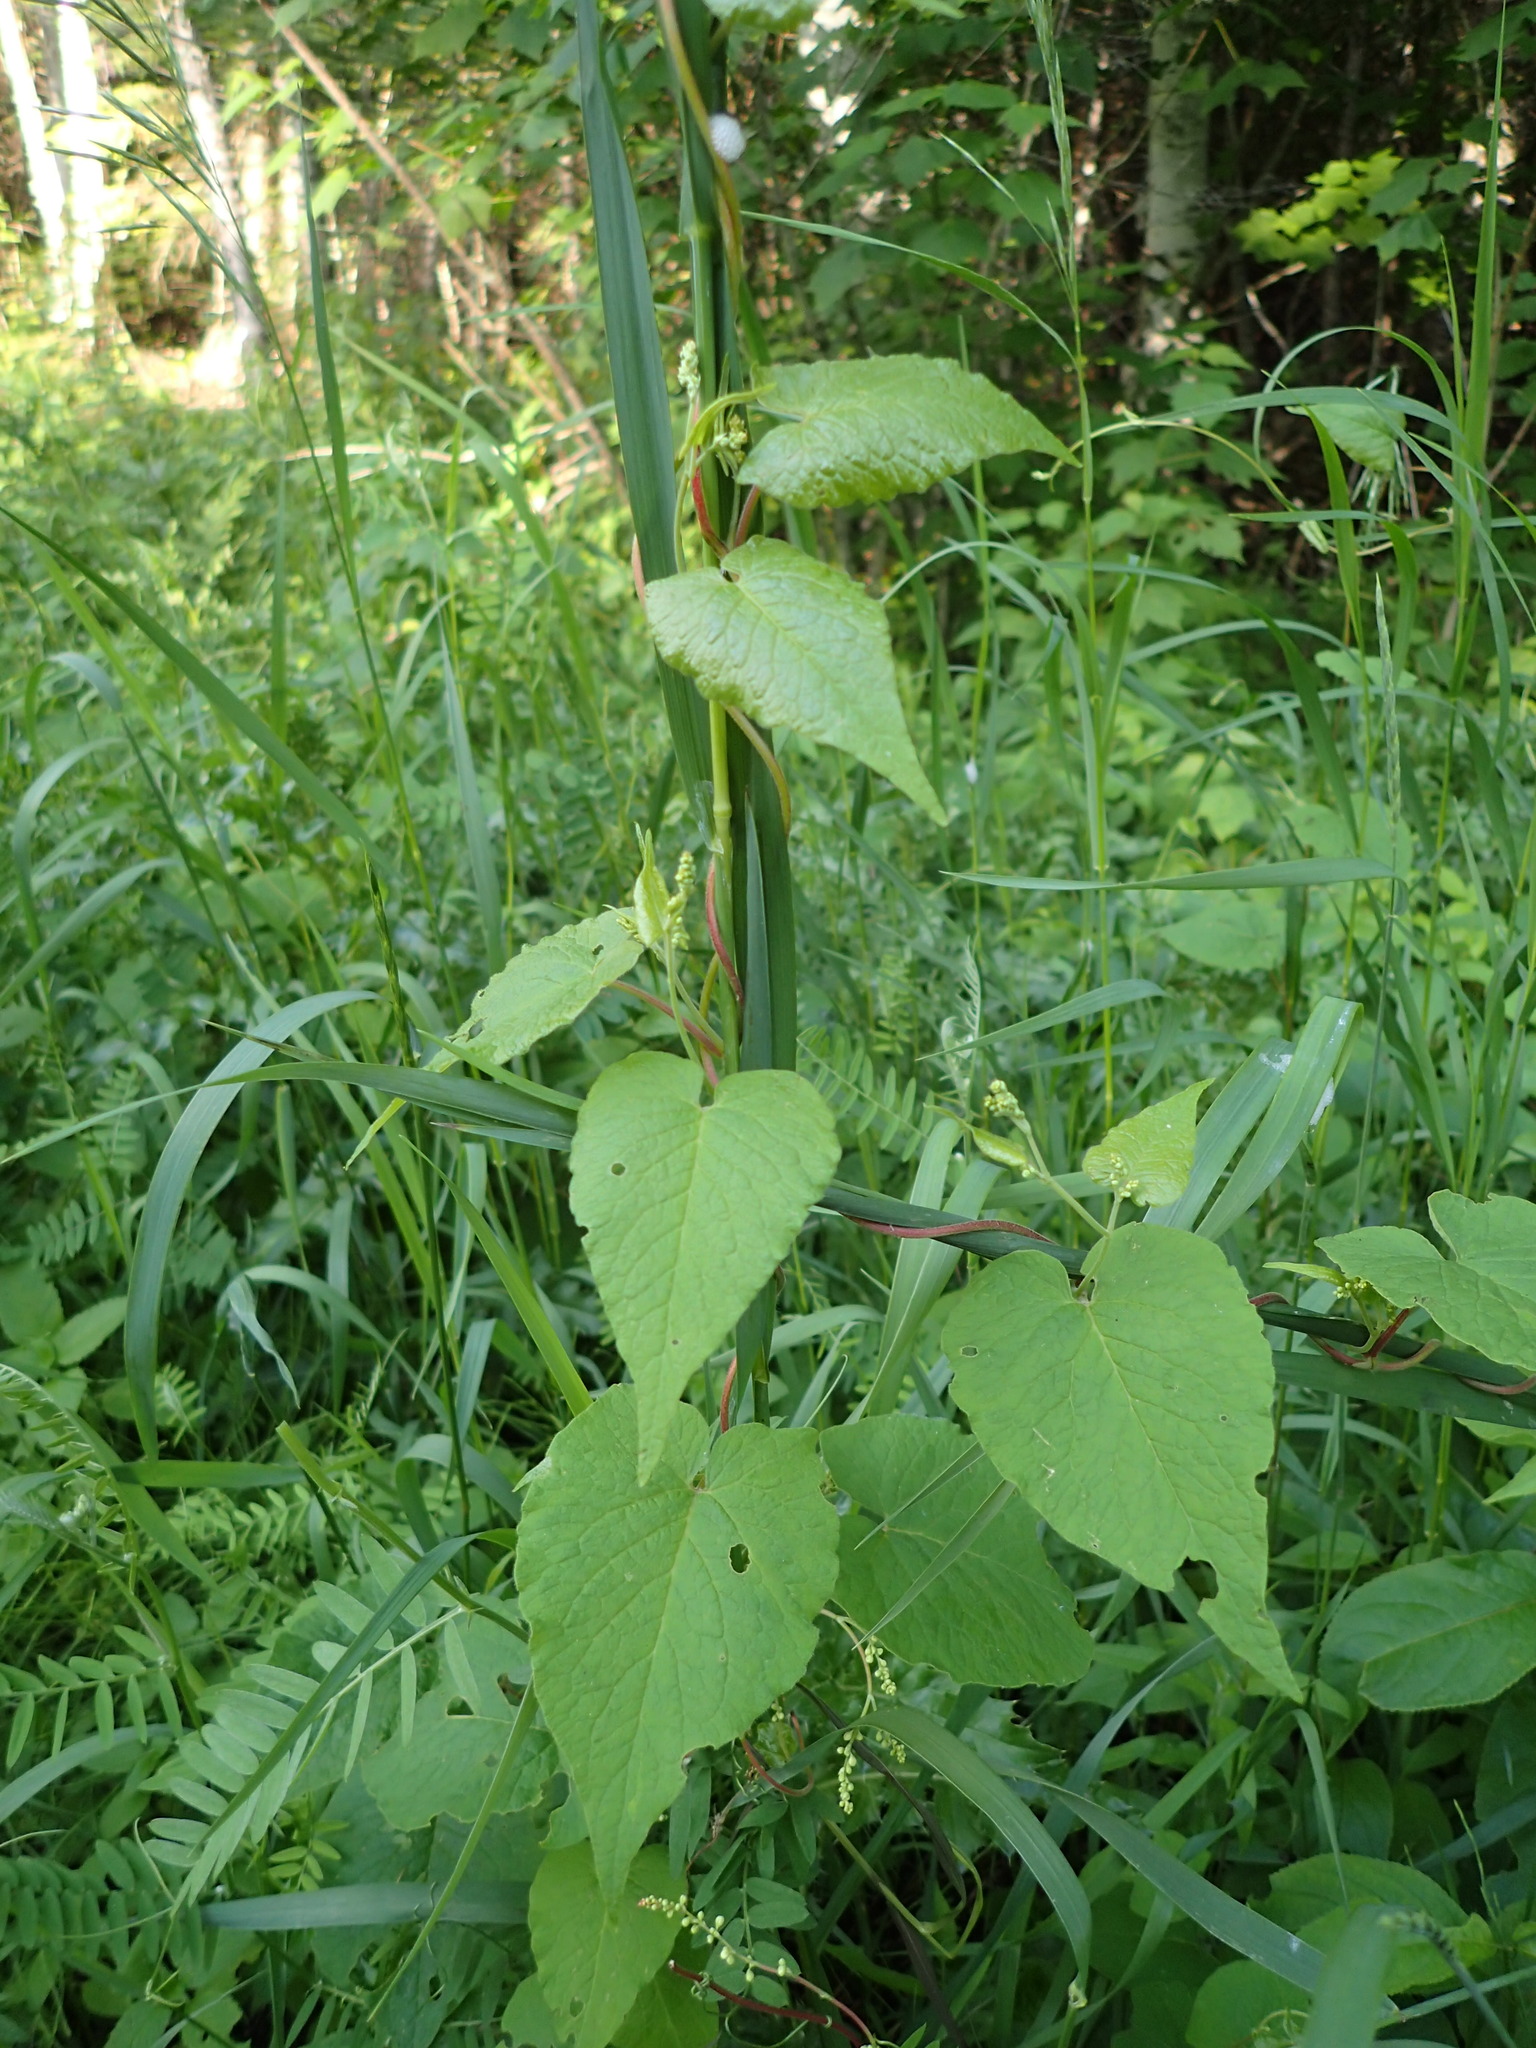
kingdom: Plantae
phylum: Tracheophyta
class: Magnoliopsida
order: Caryophyllales
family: Polygonaceae
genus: Parogonum
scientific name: Parogonum ciliinode
